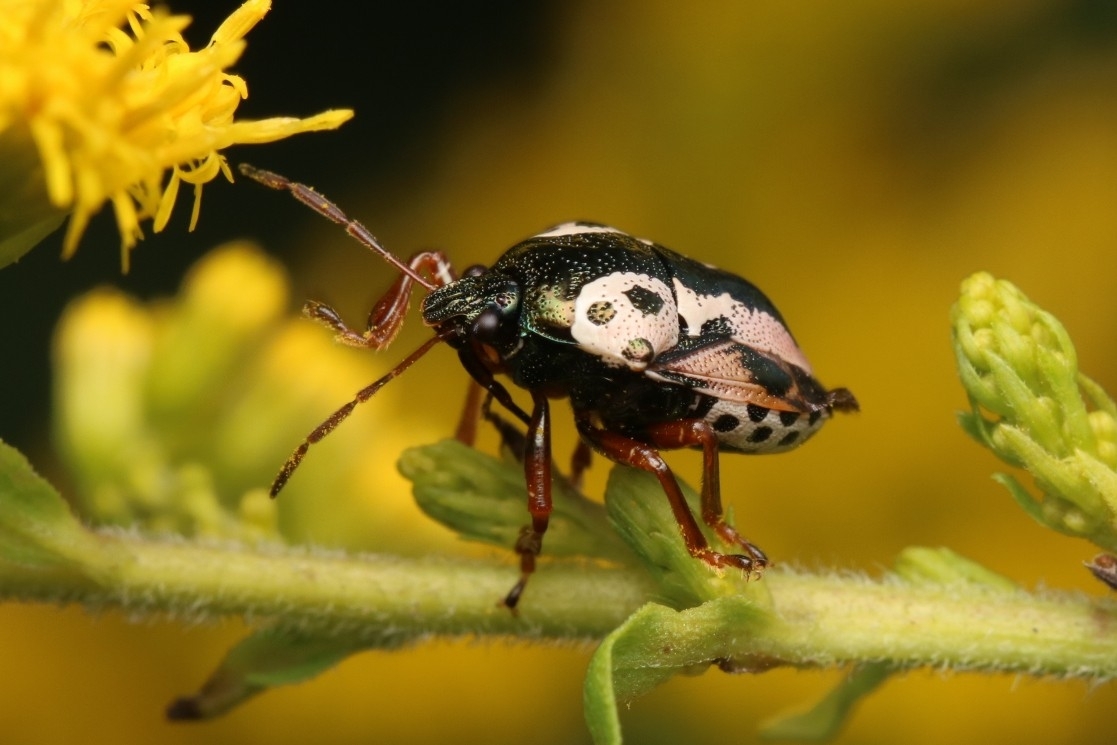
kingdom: Animalia
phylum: Arthropoda
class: Insecta
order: Hemiptera
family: Pentatomidae
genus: Stiretrus
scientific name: Stiretrus anchorago
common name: Anchor stink bug
